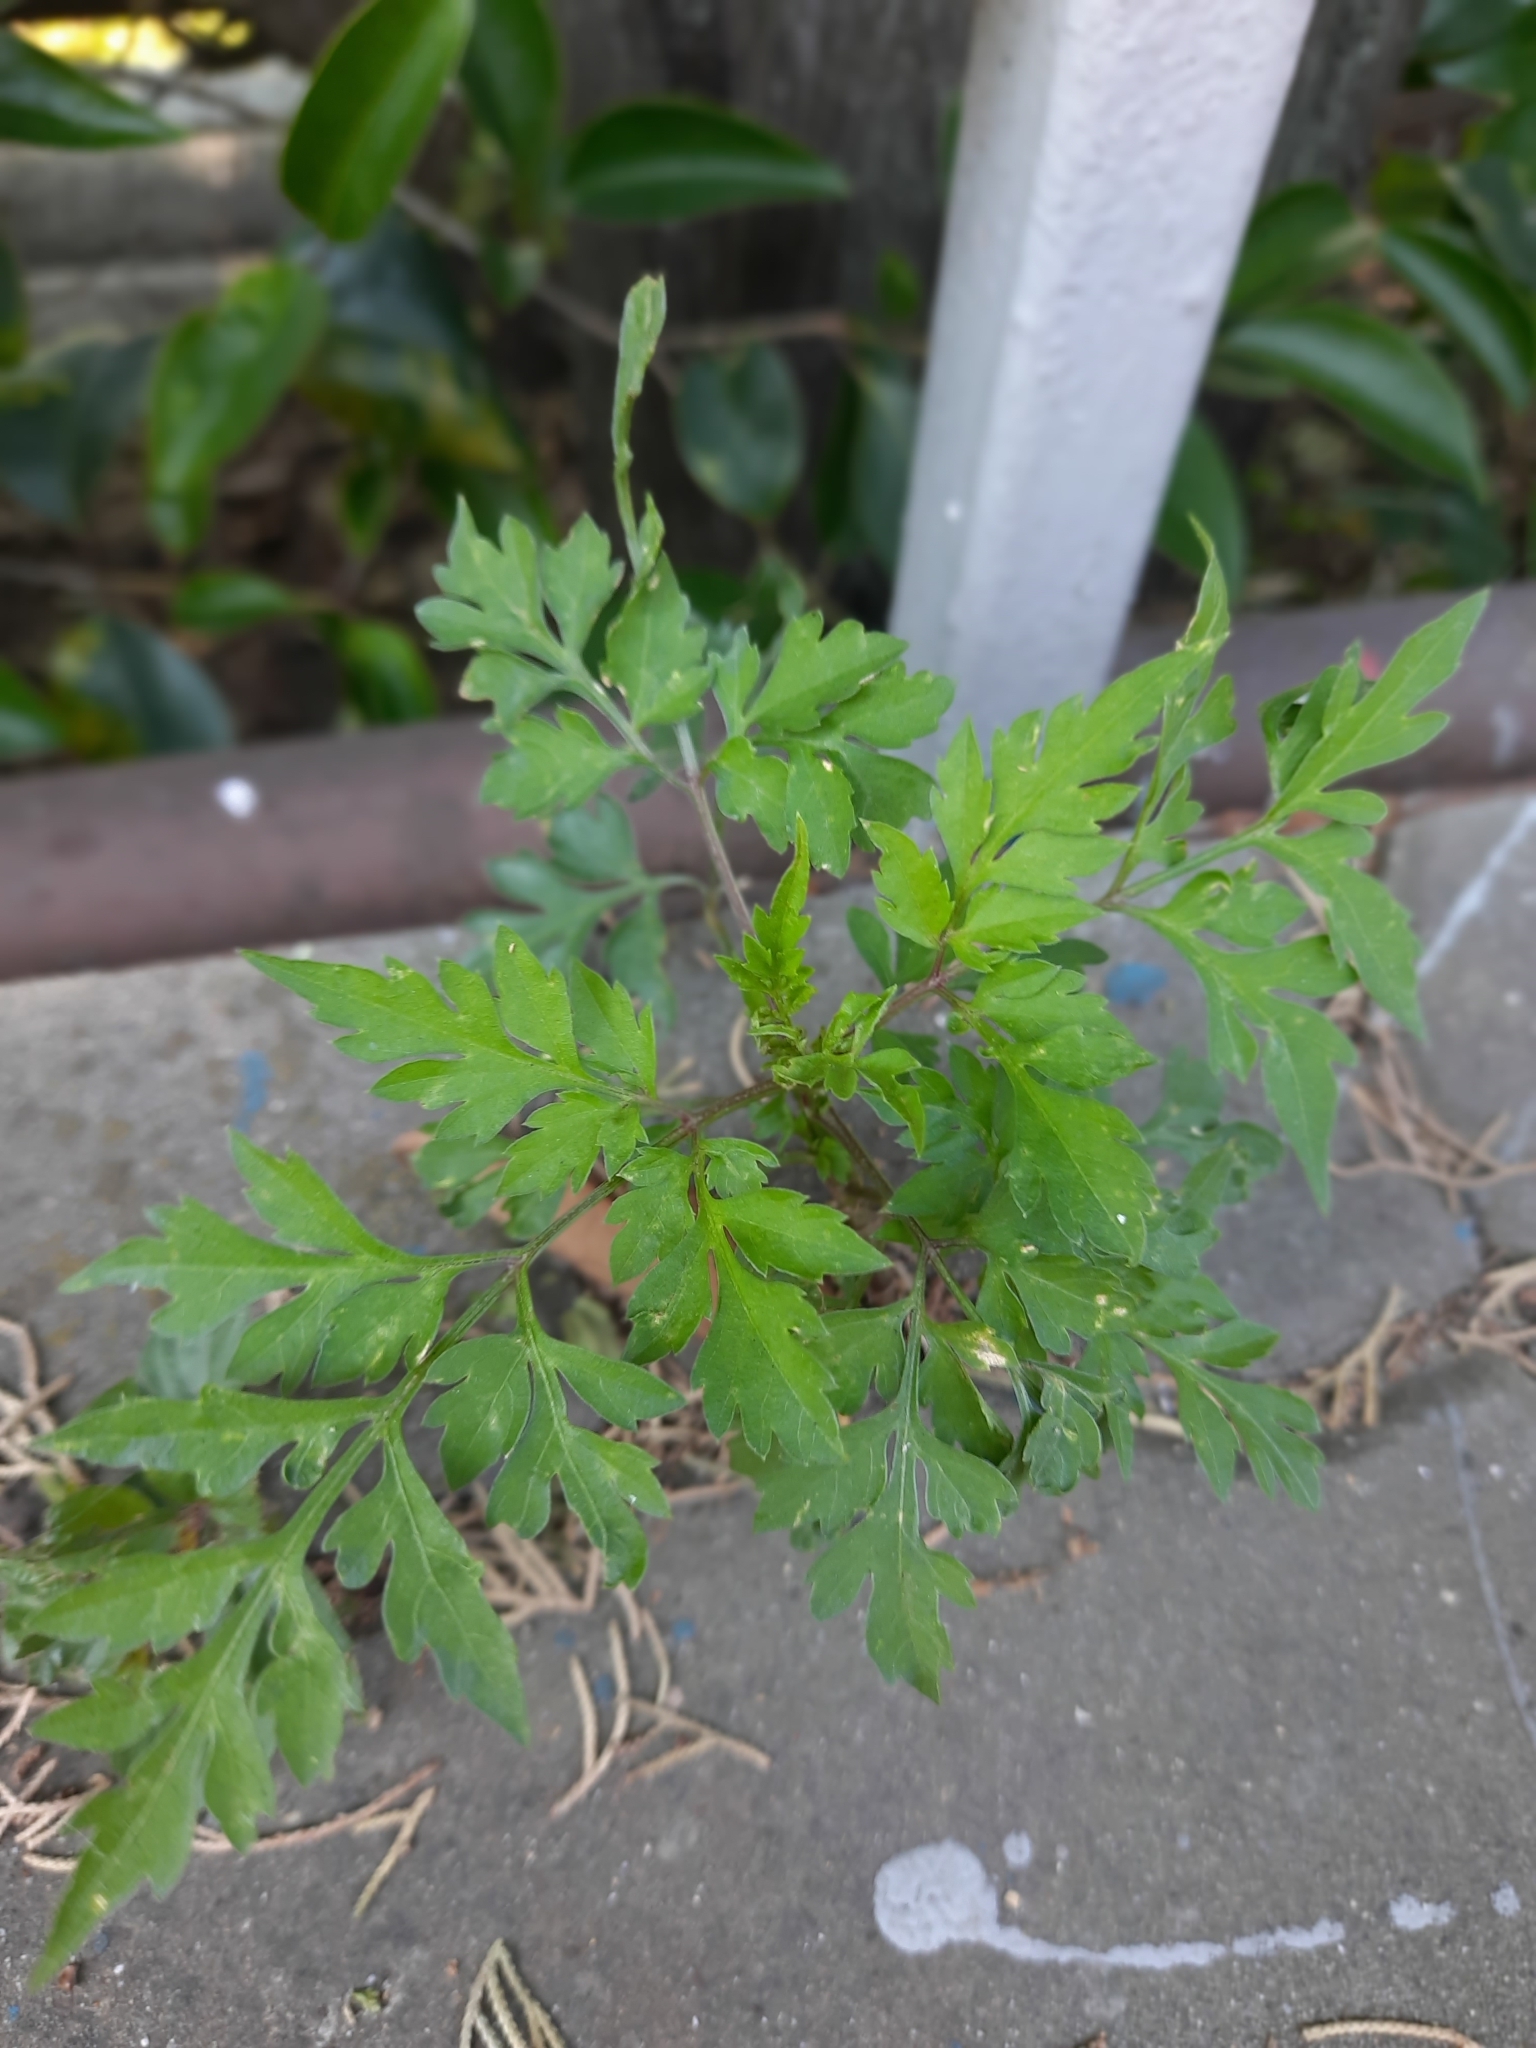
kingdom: Plantae
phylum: Tracheophyta
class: Magnoliopsida
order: Asterales
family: Asteraceae
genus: Bidens
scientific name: Bidens bipinnata
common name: Spanish-needles
